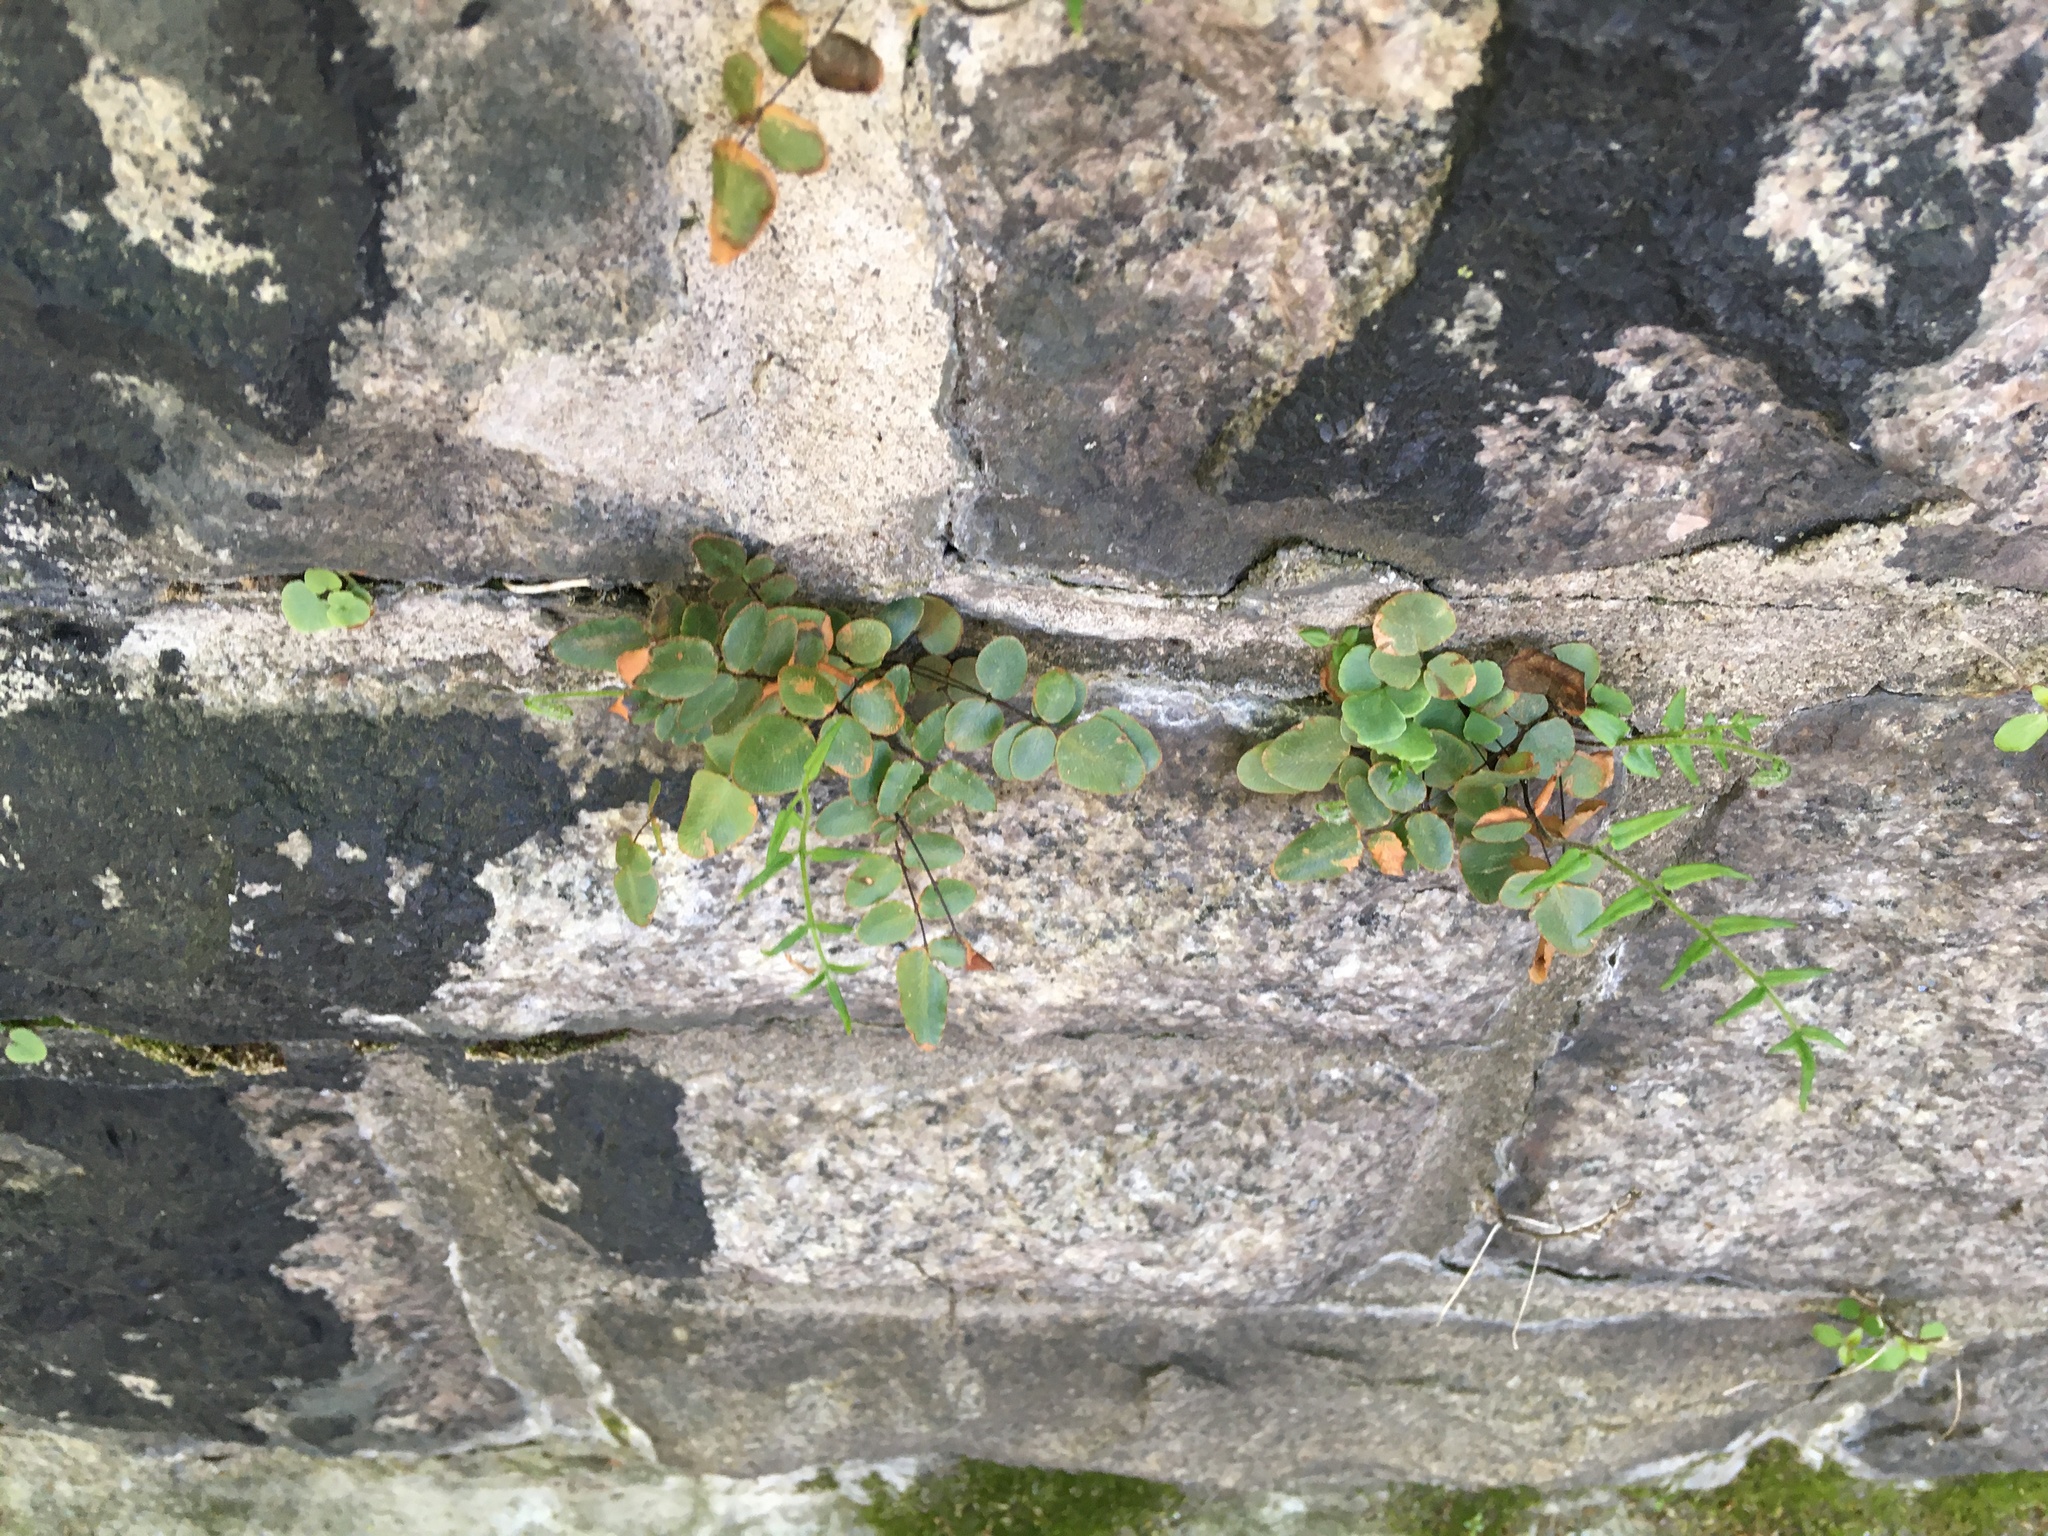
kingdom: Plantae
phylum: Tracheophyta
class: Polypodiopsida
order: Polypodiales
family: Pteridaceae
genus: Pellaea
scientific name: Pellaea atropurpurea
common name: Hairy cliffbrake
